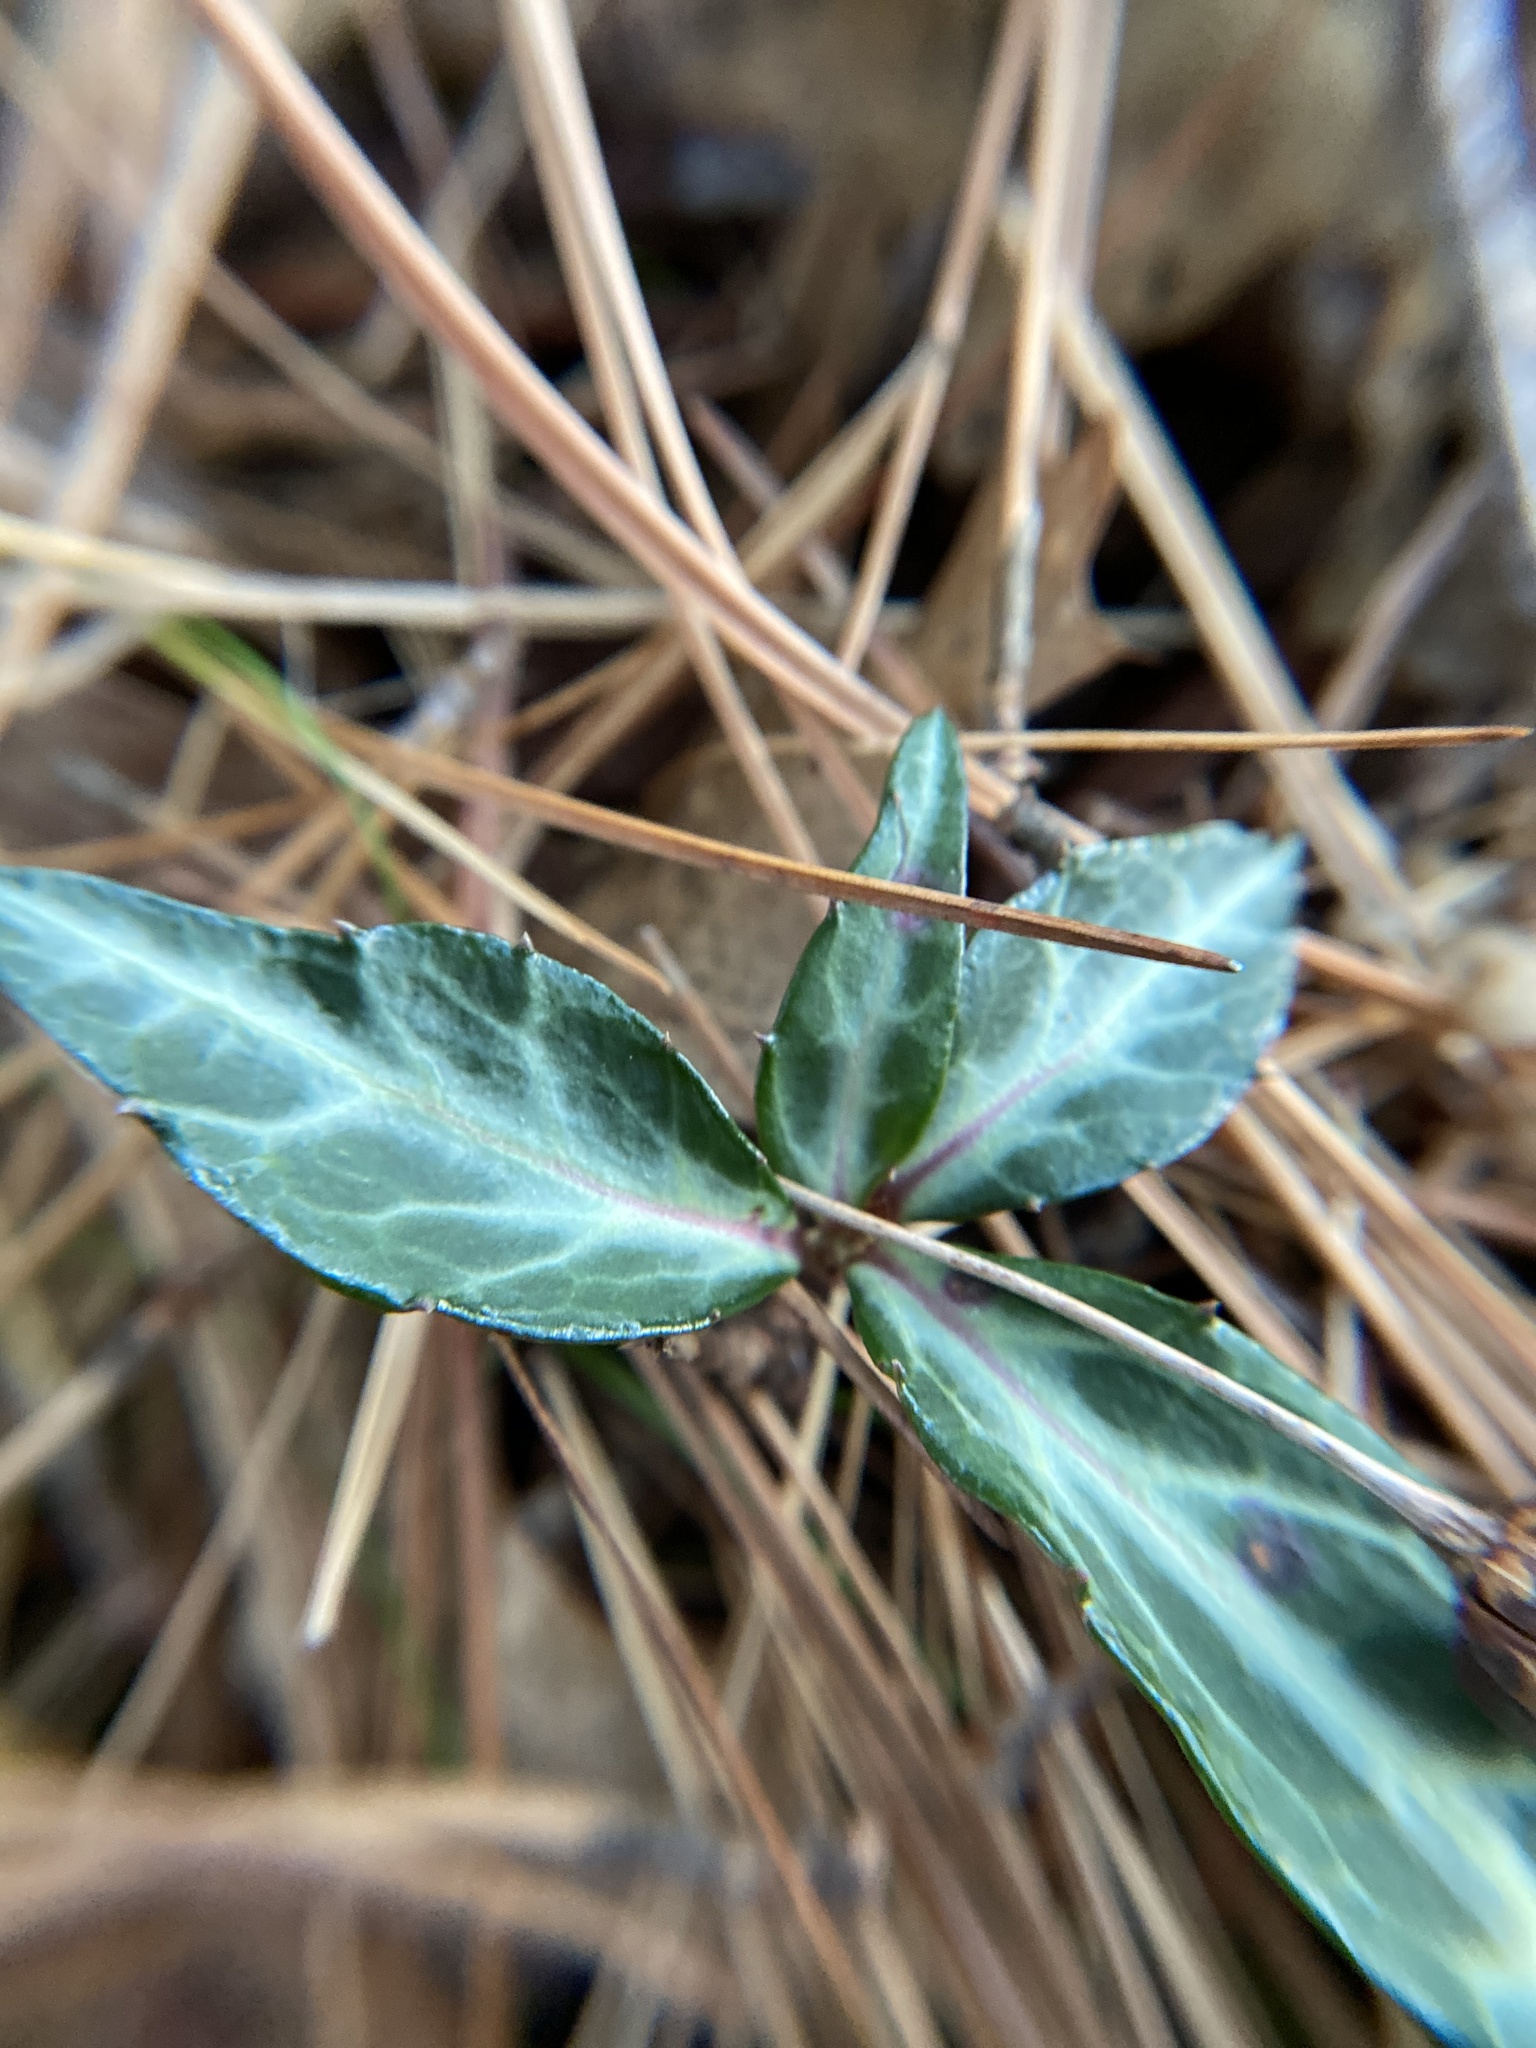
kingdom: Plantae
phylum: Tracheophyta
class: Magnoliopsida
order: Ericales
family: Ericaceae
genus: Chimaphila
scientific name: Chimaphila maculata
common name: Spotted pipsissewa
